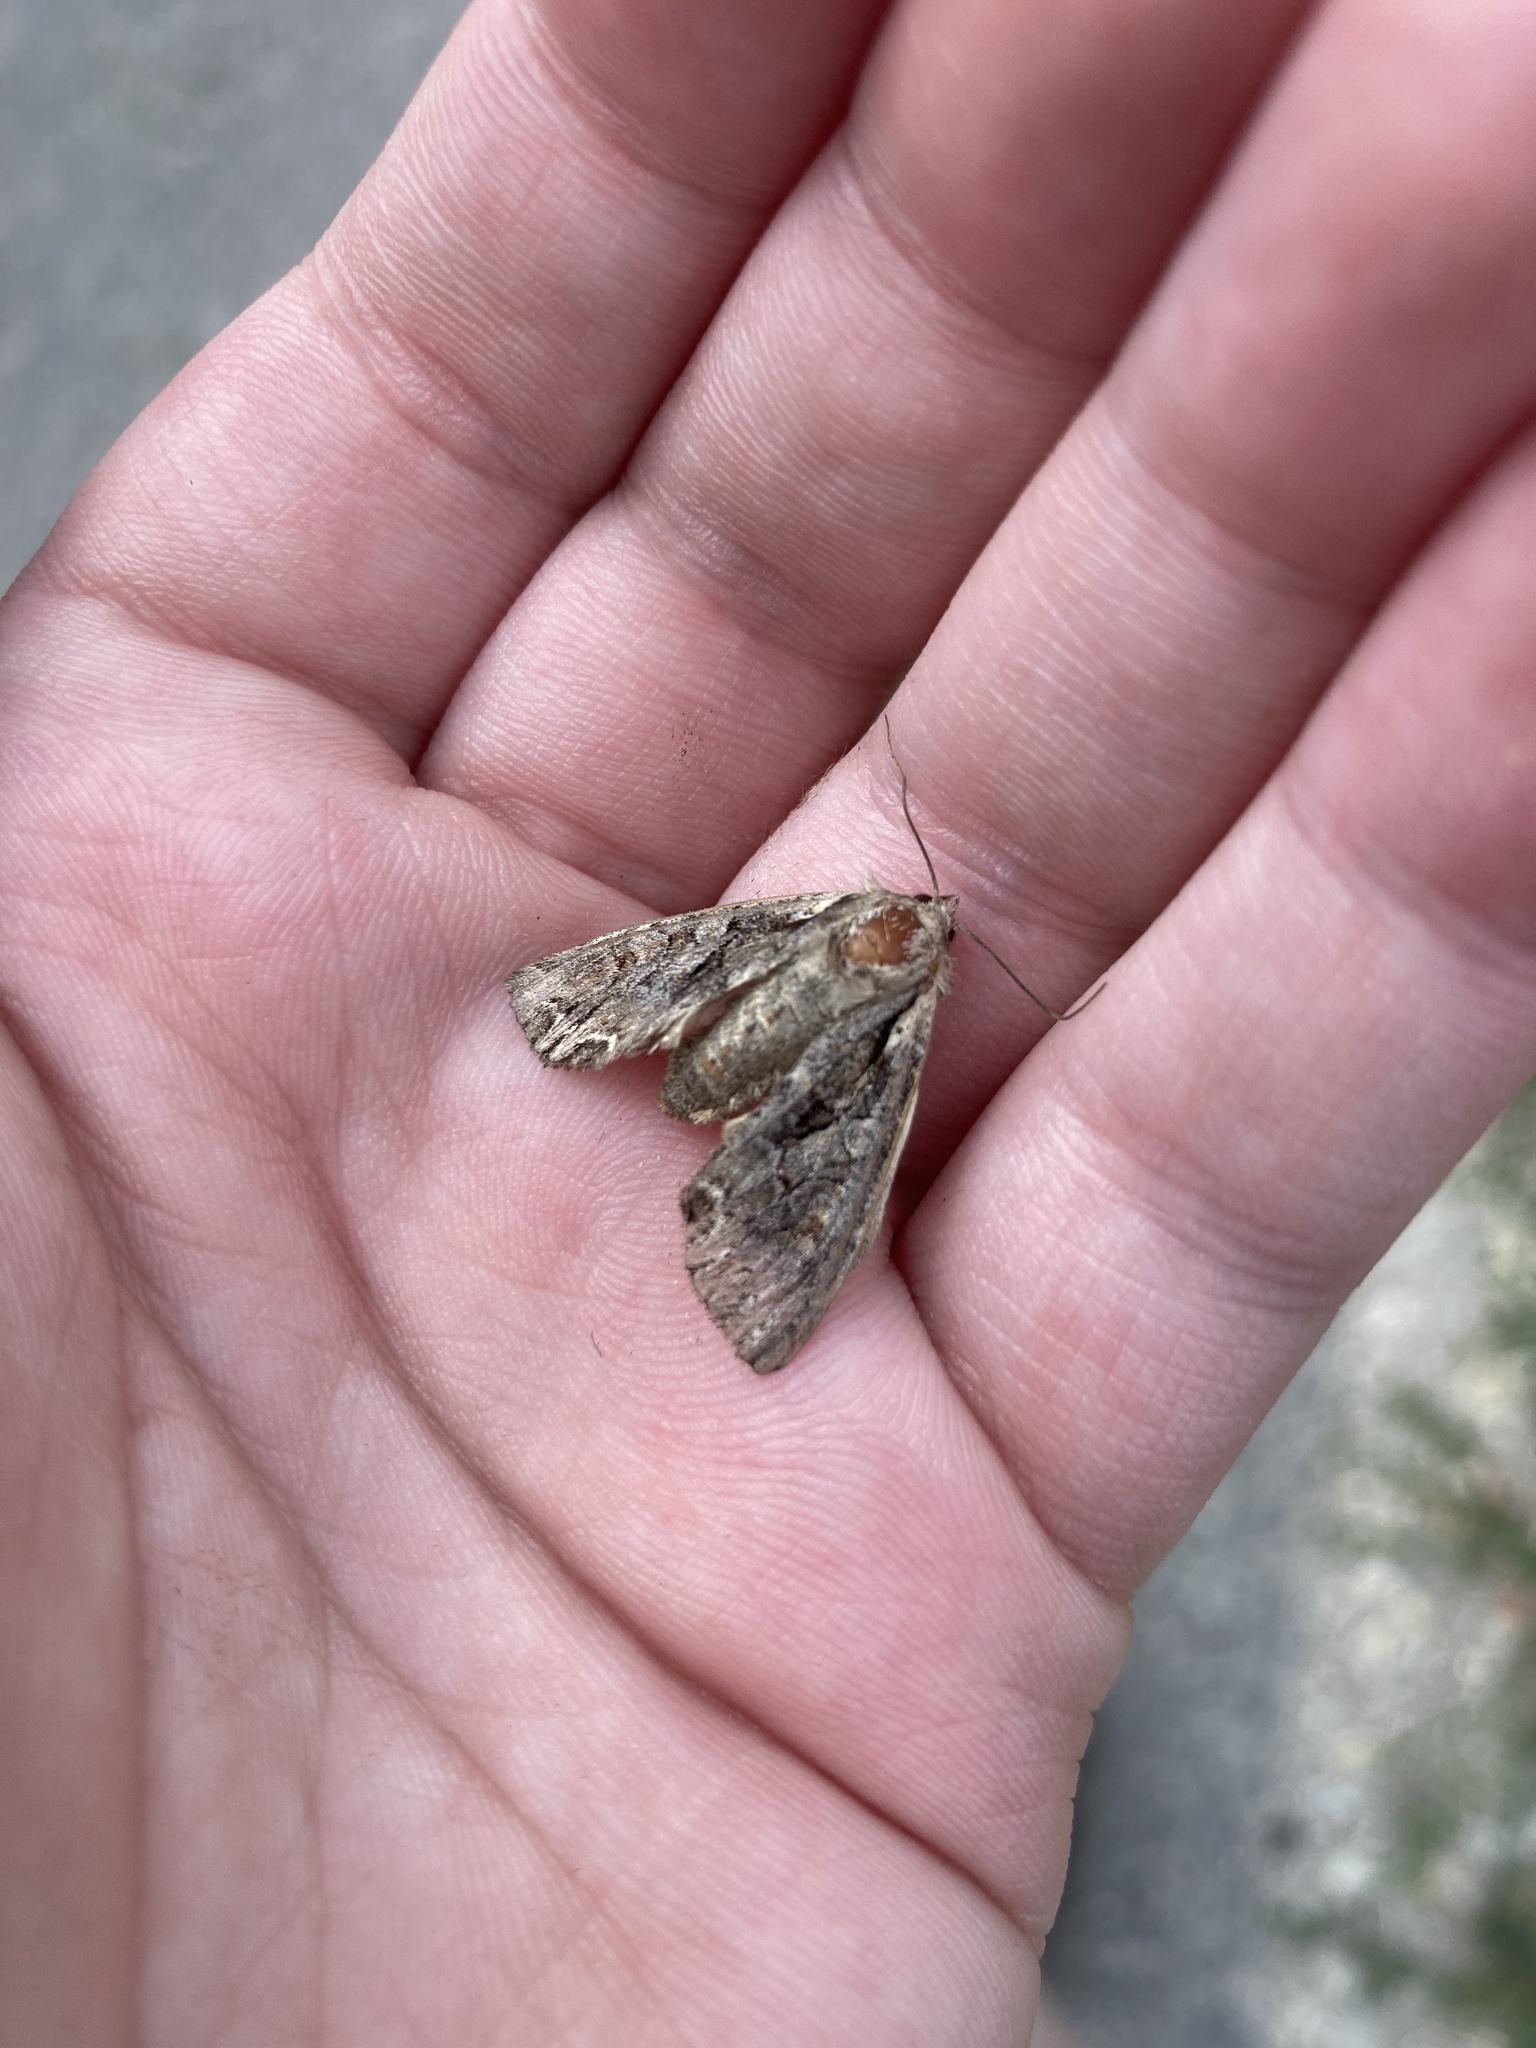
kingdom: Animalia
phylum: Arthropoda
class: Insecta
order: Lepidoptera
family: Noctuidae
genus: Lacanobia
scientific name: Lacanobia thalassina
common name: Pale-shouldered brocade
